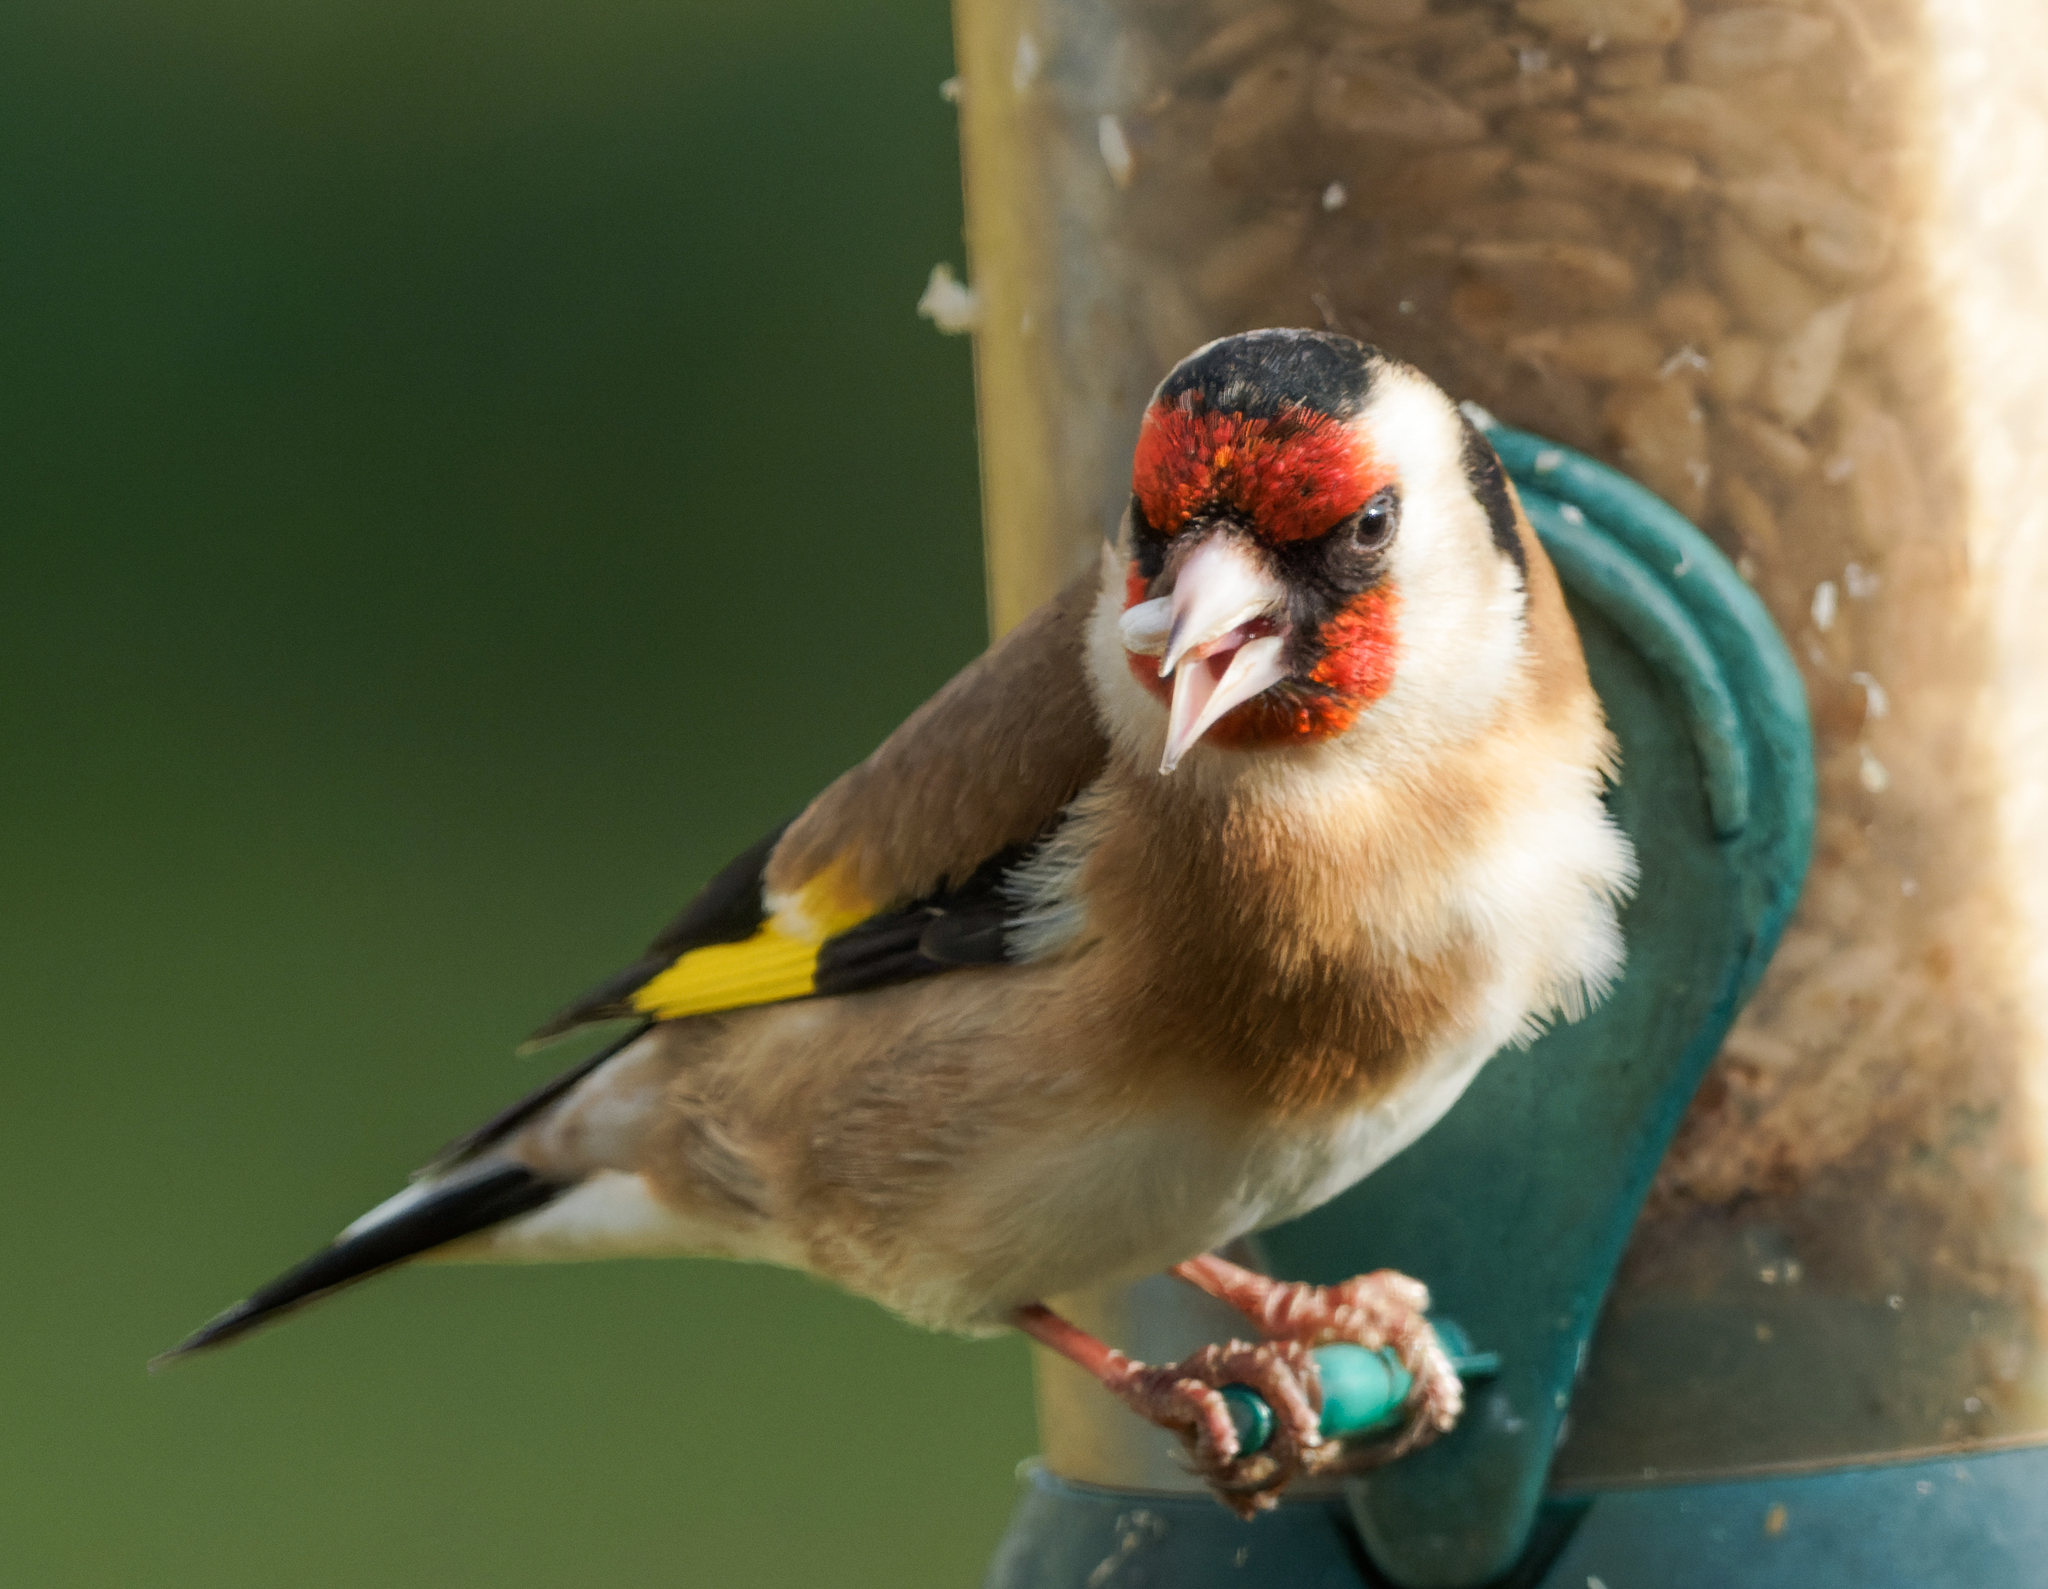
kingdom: Animalia
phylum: Chordata
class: Aves
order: Passeriformes
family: Fringillidae
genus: Carduelis
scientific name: Carduelis carduelis
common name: European goldfinch
